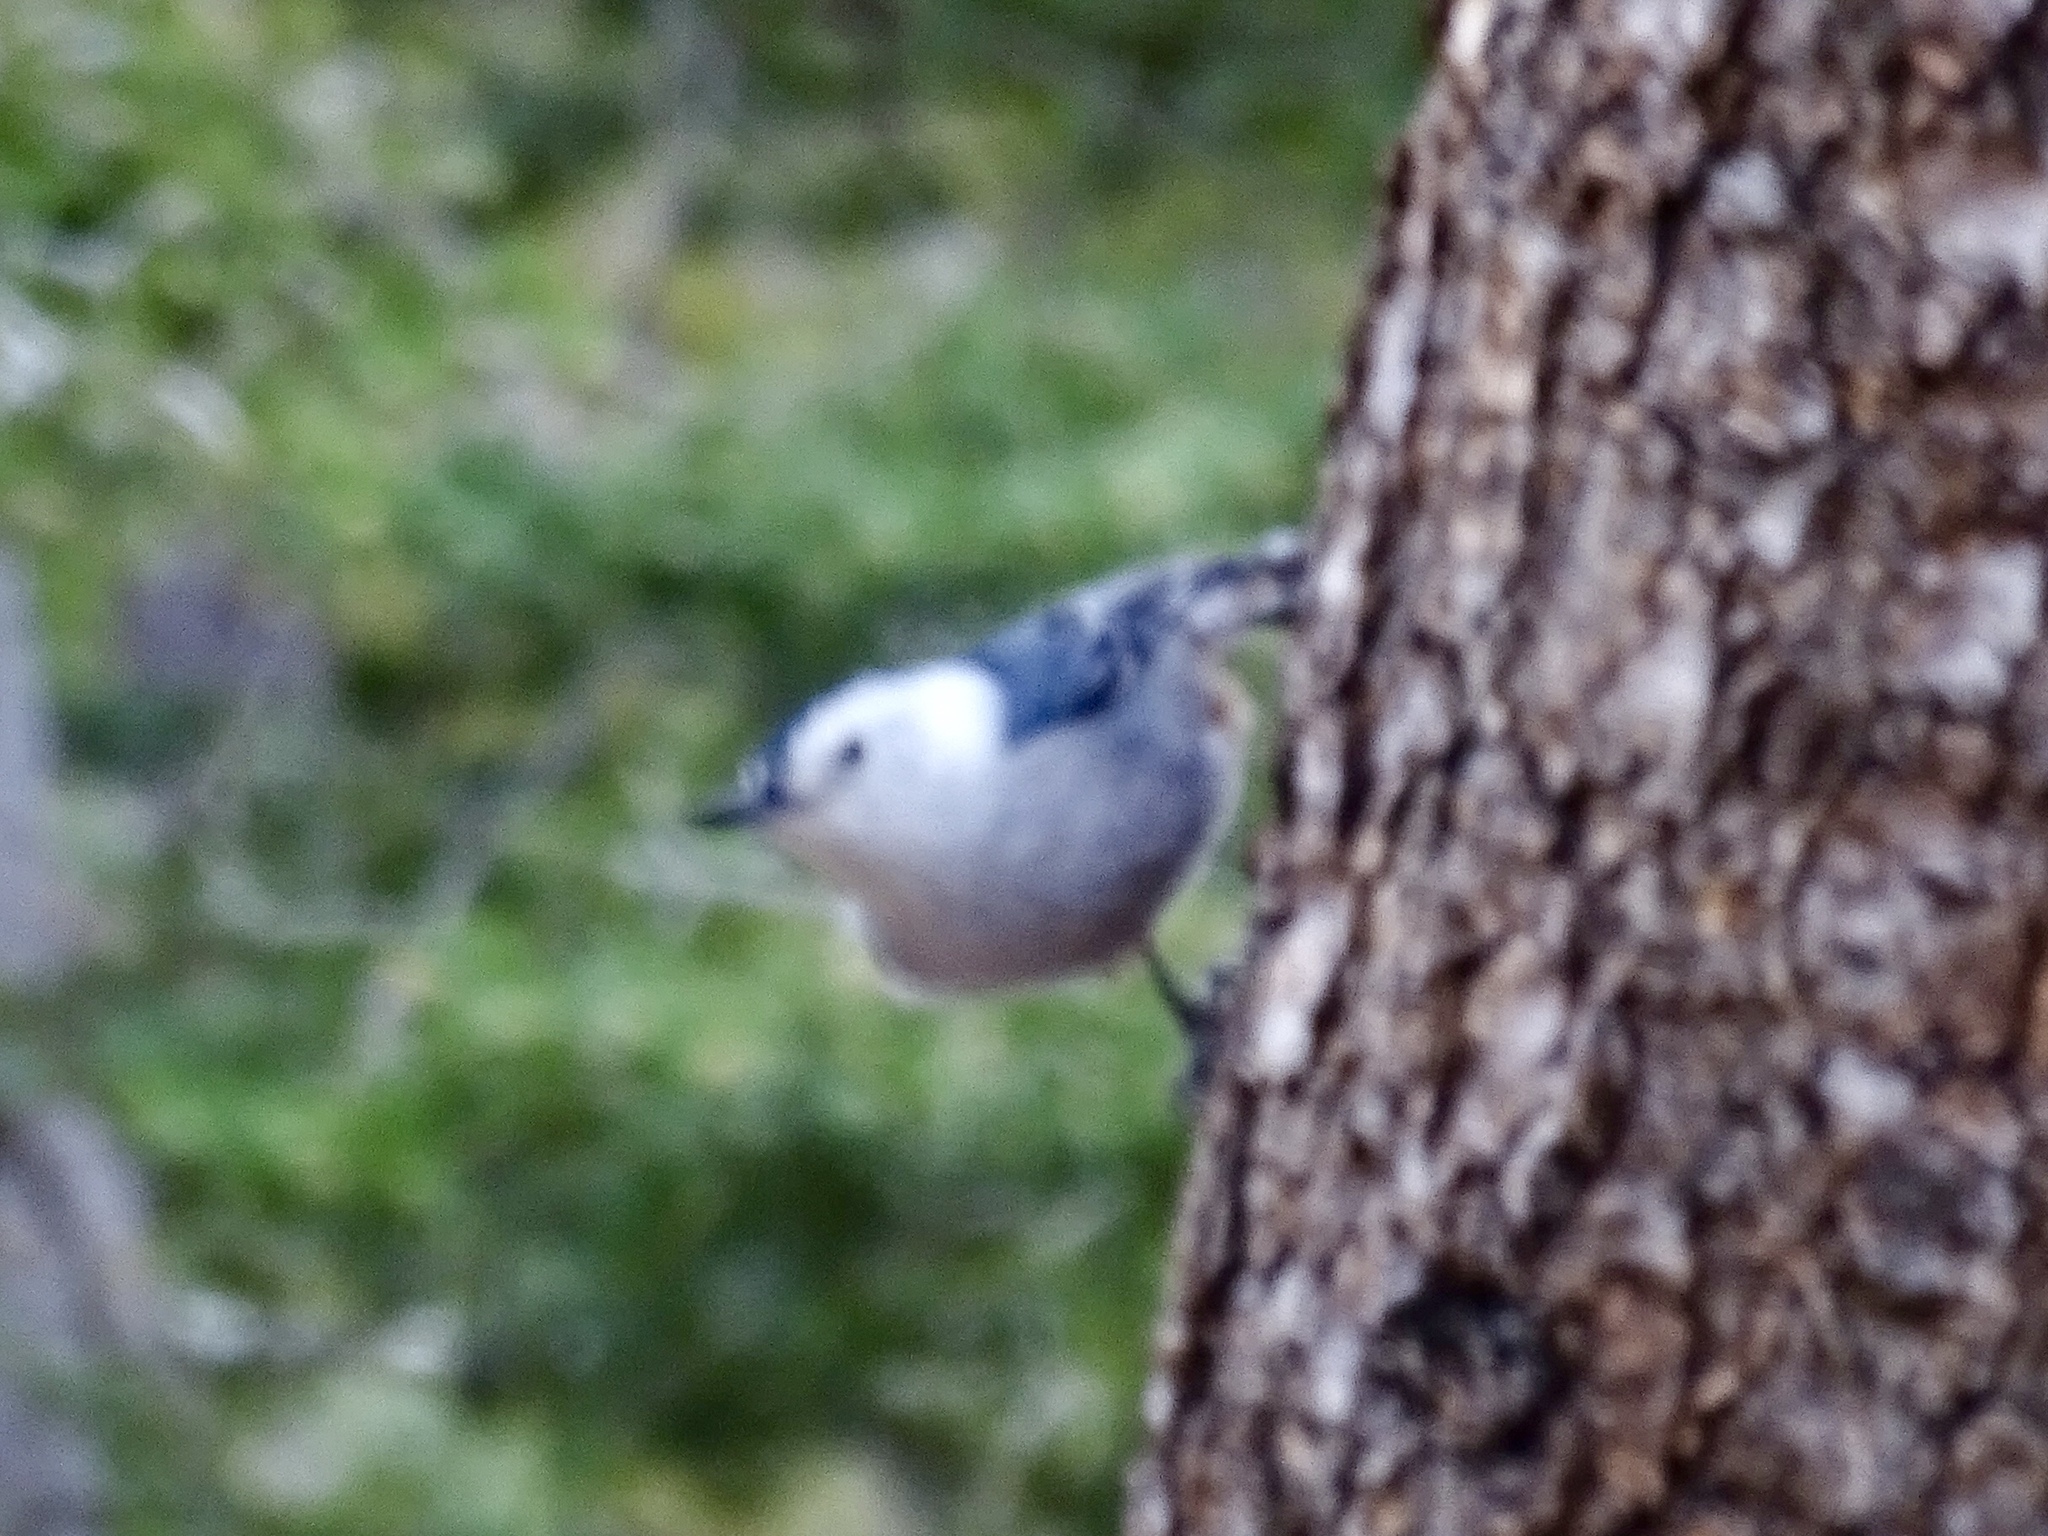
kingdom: Animalia
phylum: Chordata
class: Aves
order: Passeriformes
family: Sittidae
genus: Sitta
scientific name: Sitta carolinensis
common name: White-breasted nuthatch
